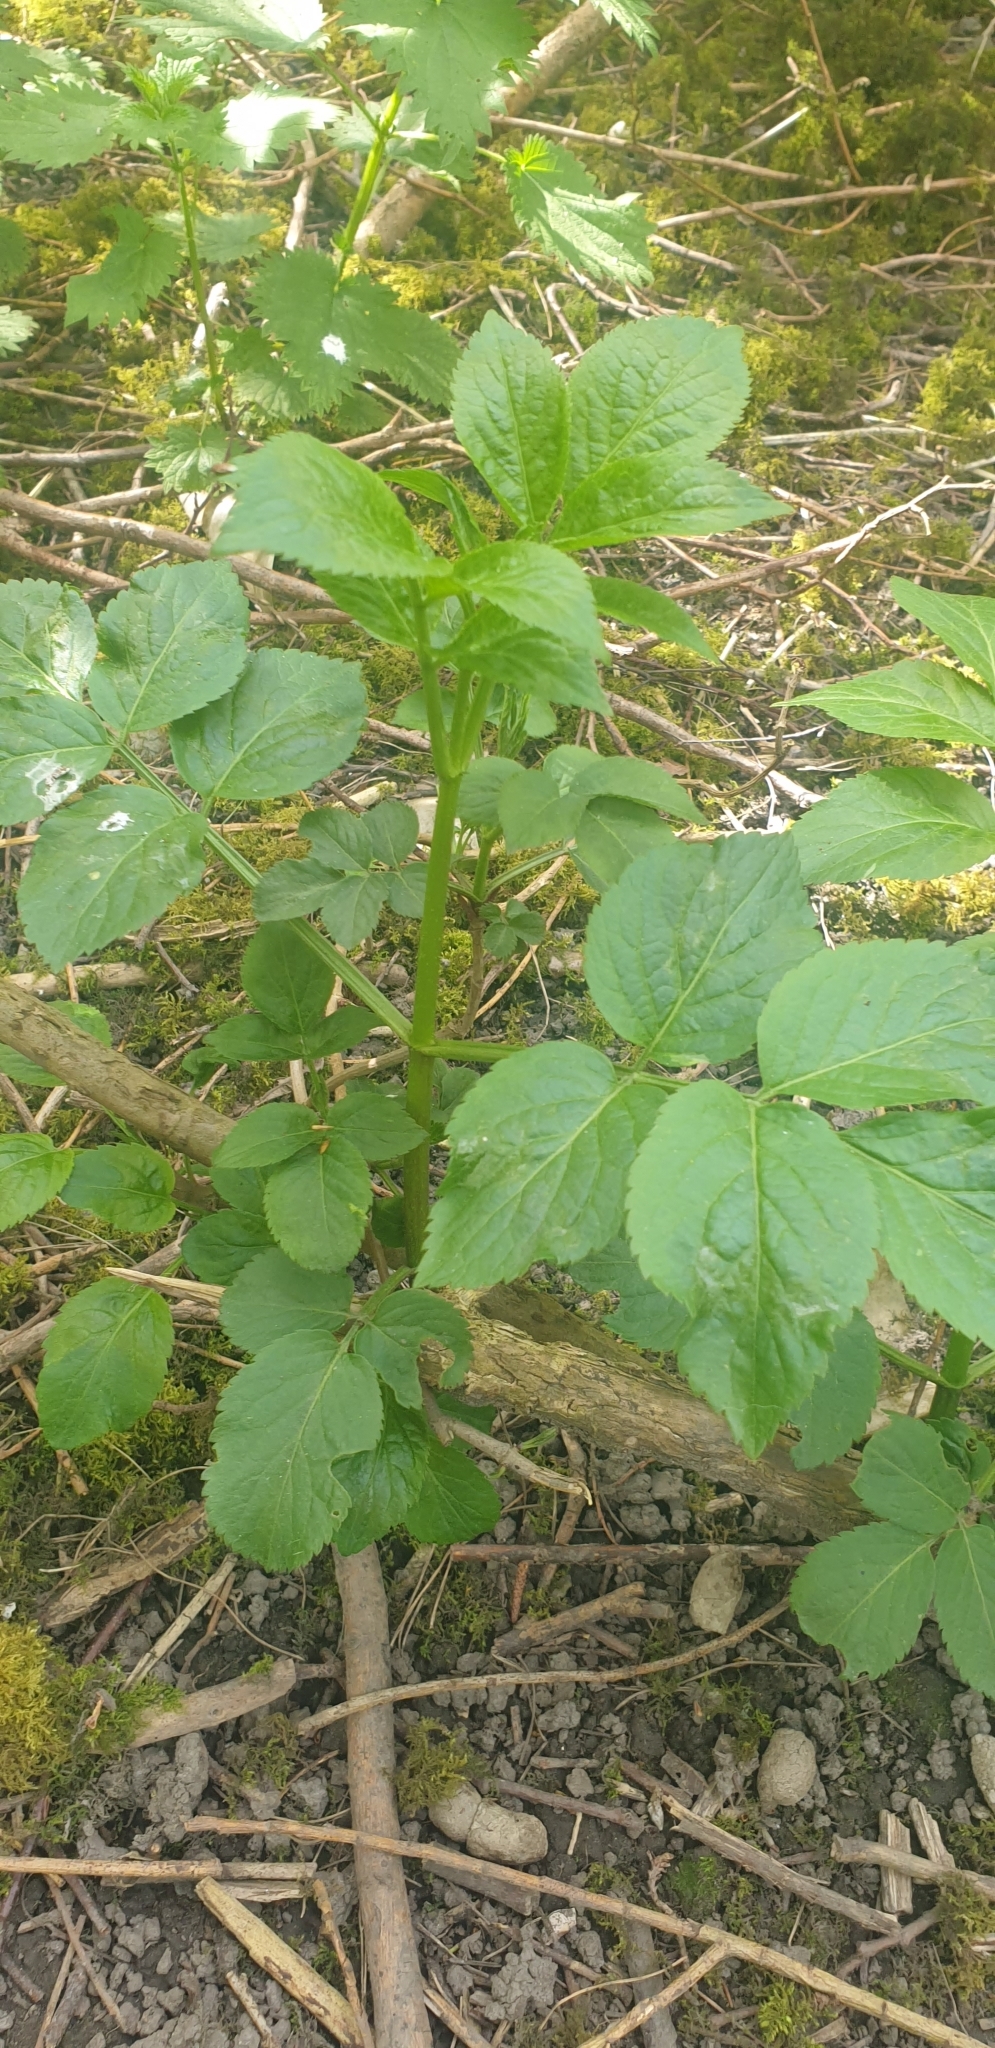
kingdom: Plantae
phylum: Tracheophyta
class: Magnoliopsida
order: Dipsacales
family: Viburnaceae
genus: Sambucus
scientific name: Sambucus nigra
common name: Elder
